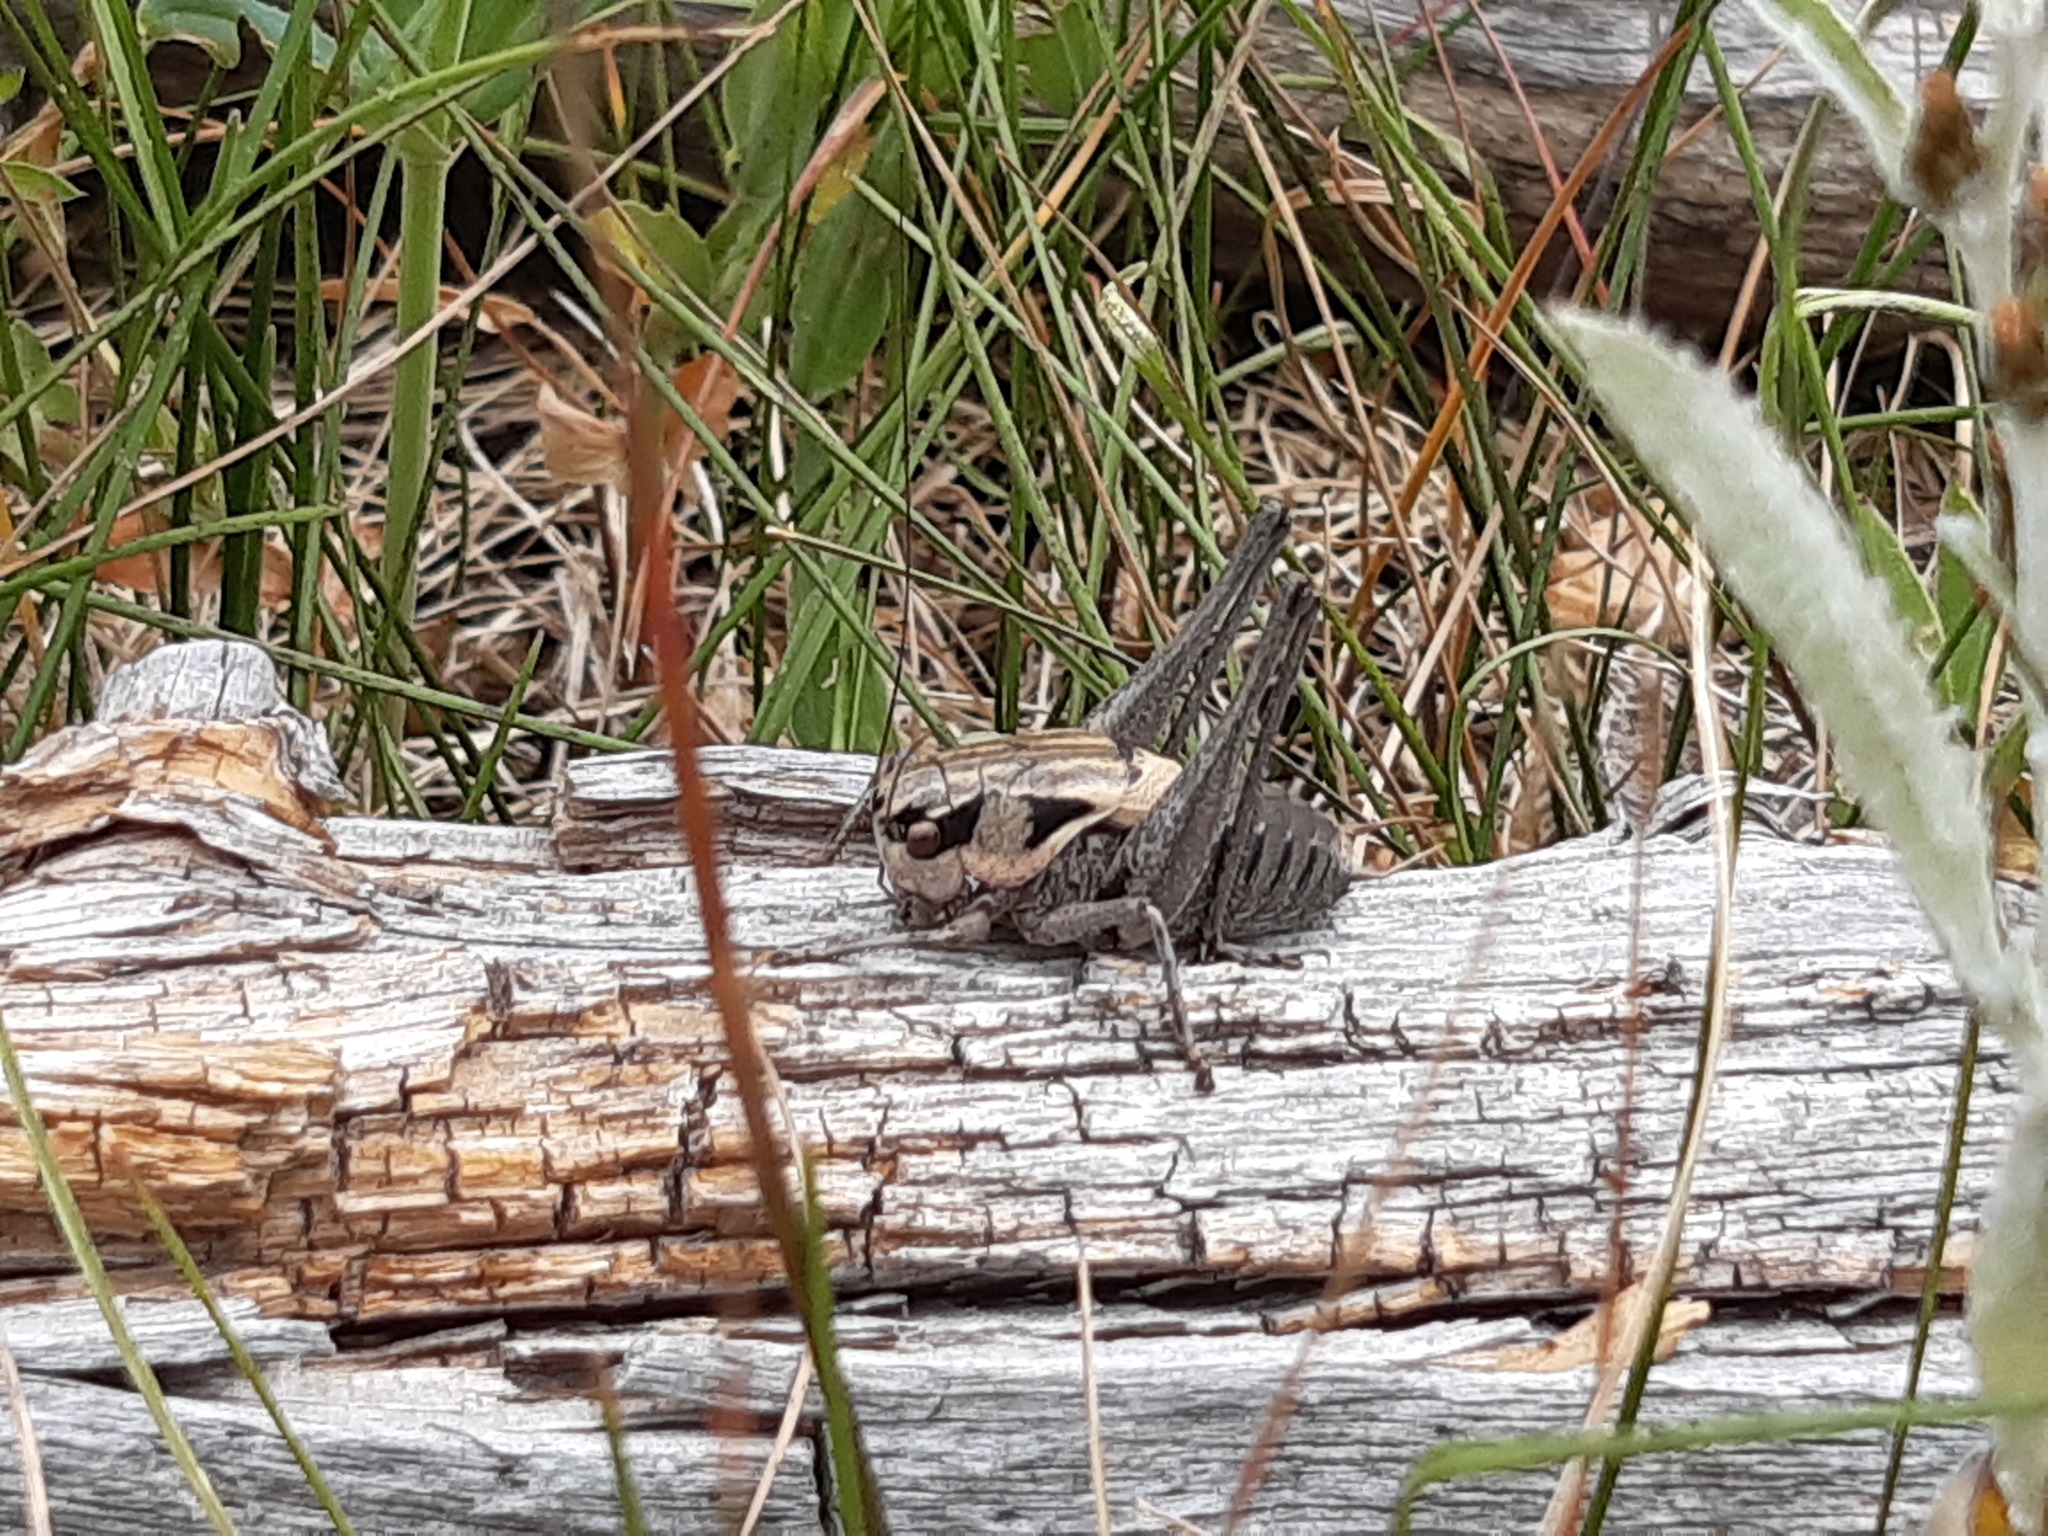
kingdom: Animalia
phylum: Arthropoda
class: Insecta
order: Orthoptera
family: Tettigoniidae
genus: Pholidoptera
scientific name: Pholidoptera dalmatica
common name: Dalmatian dark bush-cricket
